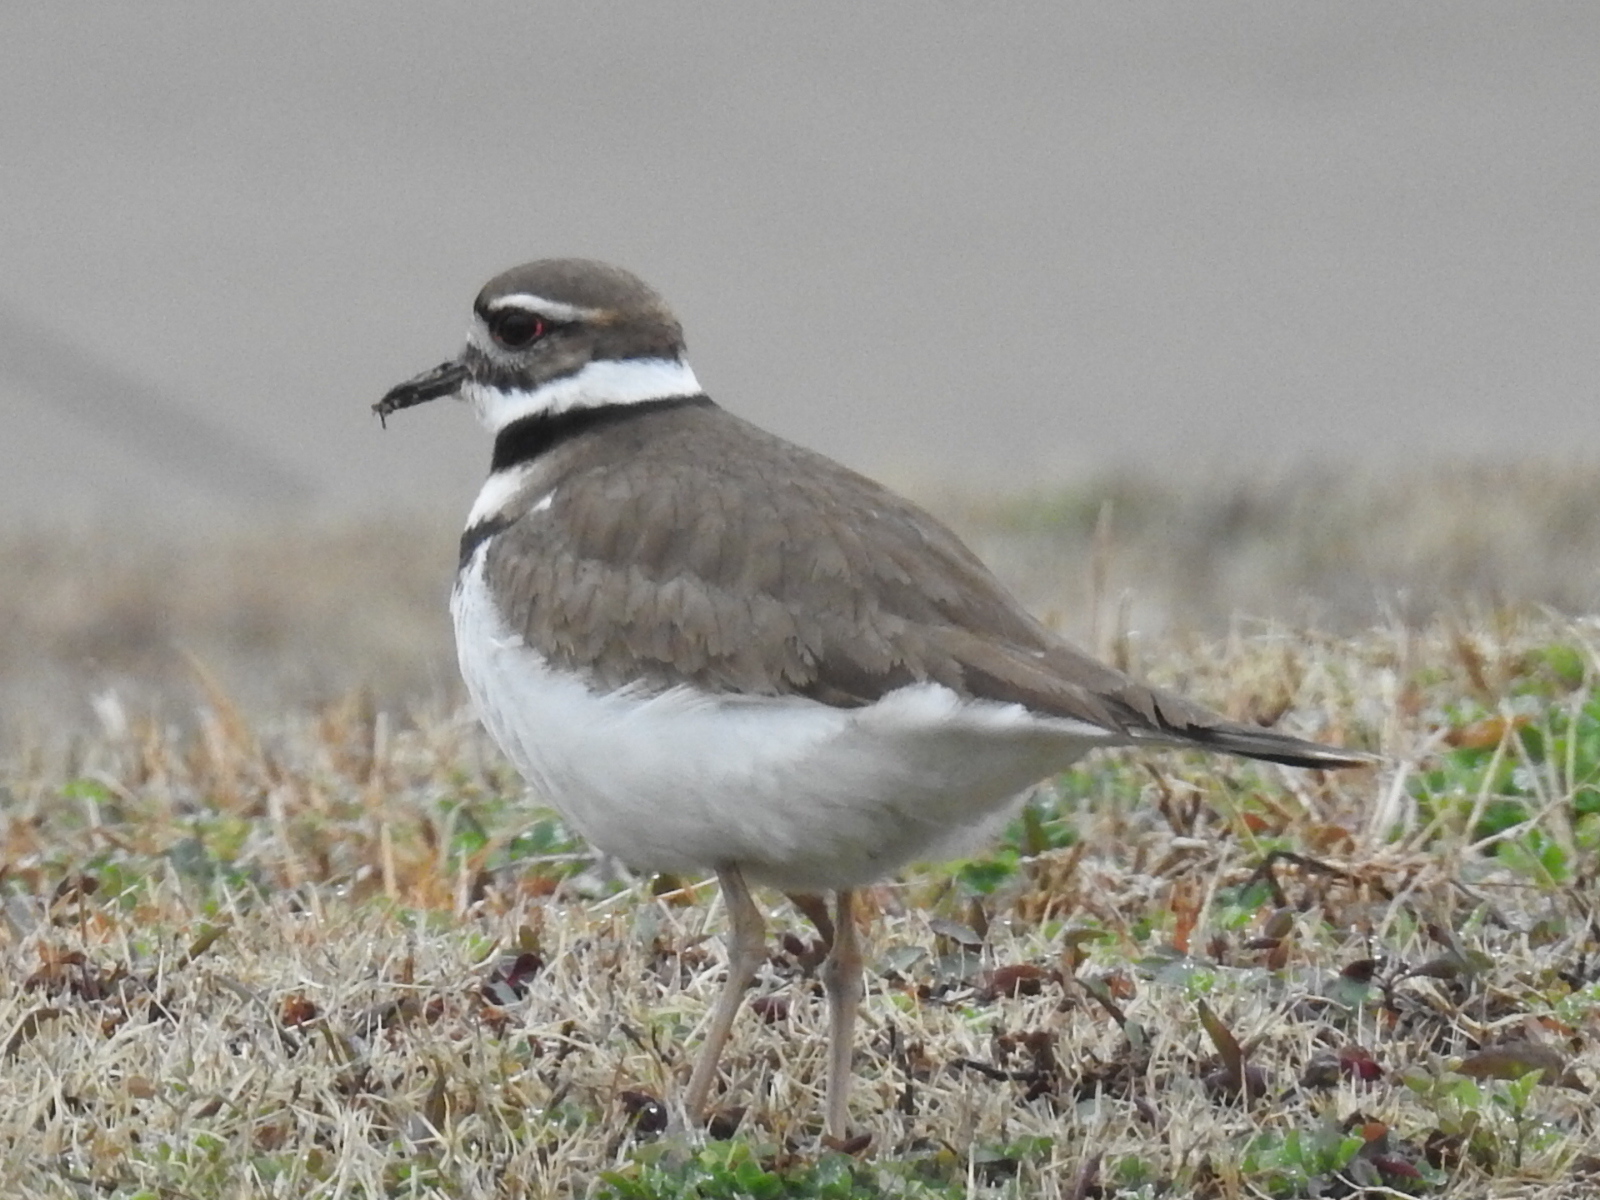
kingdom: Animalia
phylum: Chordata
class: Aves
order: Charadriiformes
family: Charadriidae
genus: Charadrius
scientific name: Charadrius vociferus
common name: Killdeer
